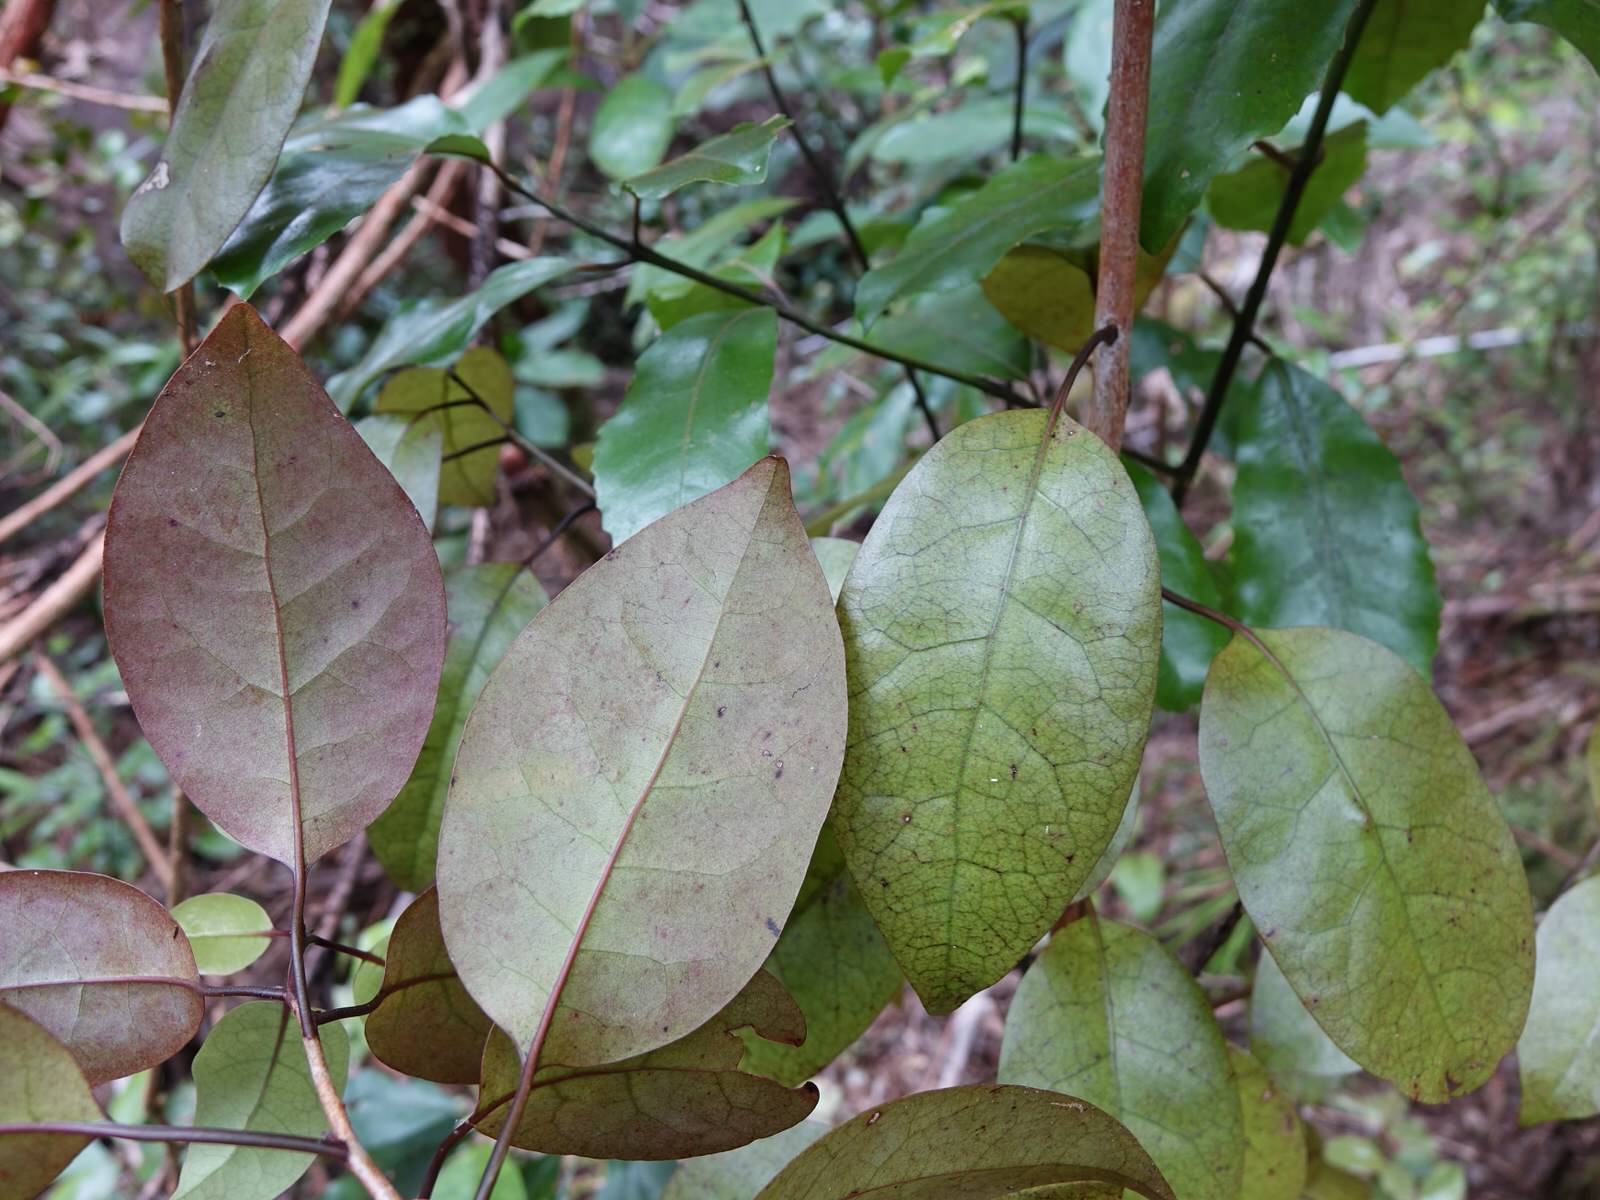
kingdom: Plantae
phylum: Tracheophyta
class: Magnoliopsida
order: Laurales
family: Lauraceae
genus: Litsea
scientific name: Litsea calicaris
